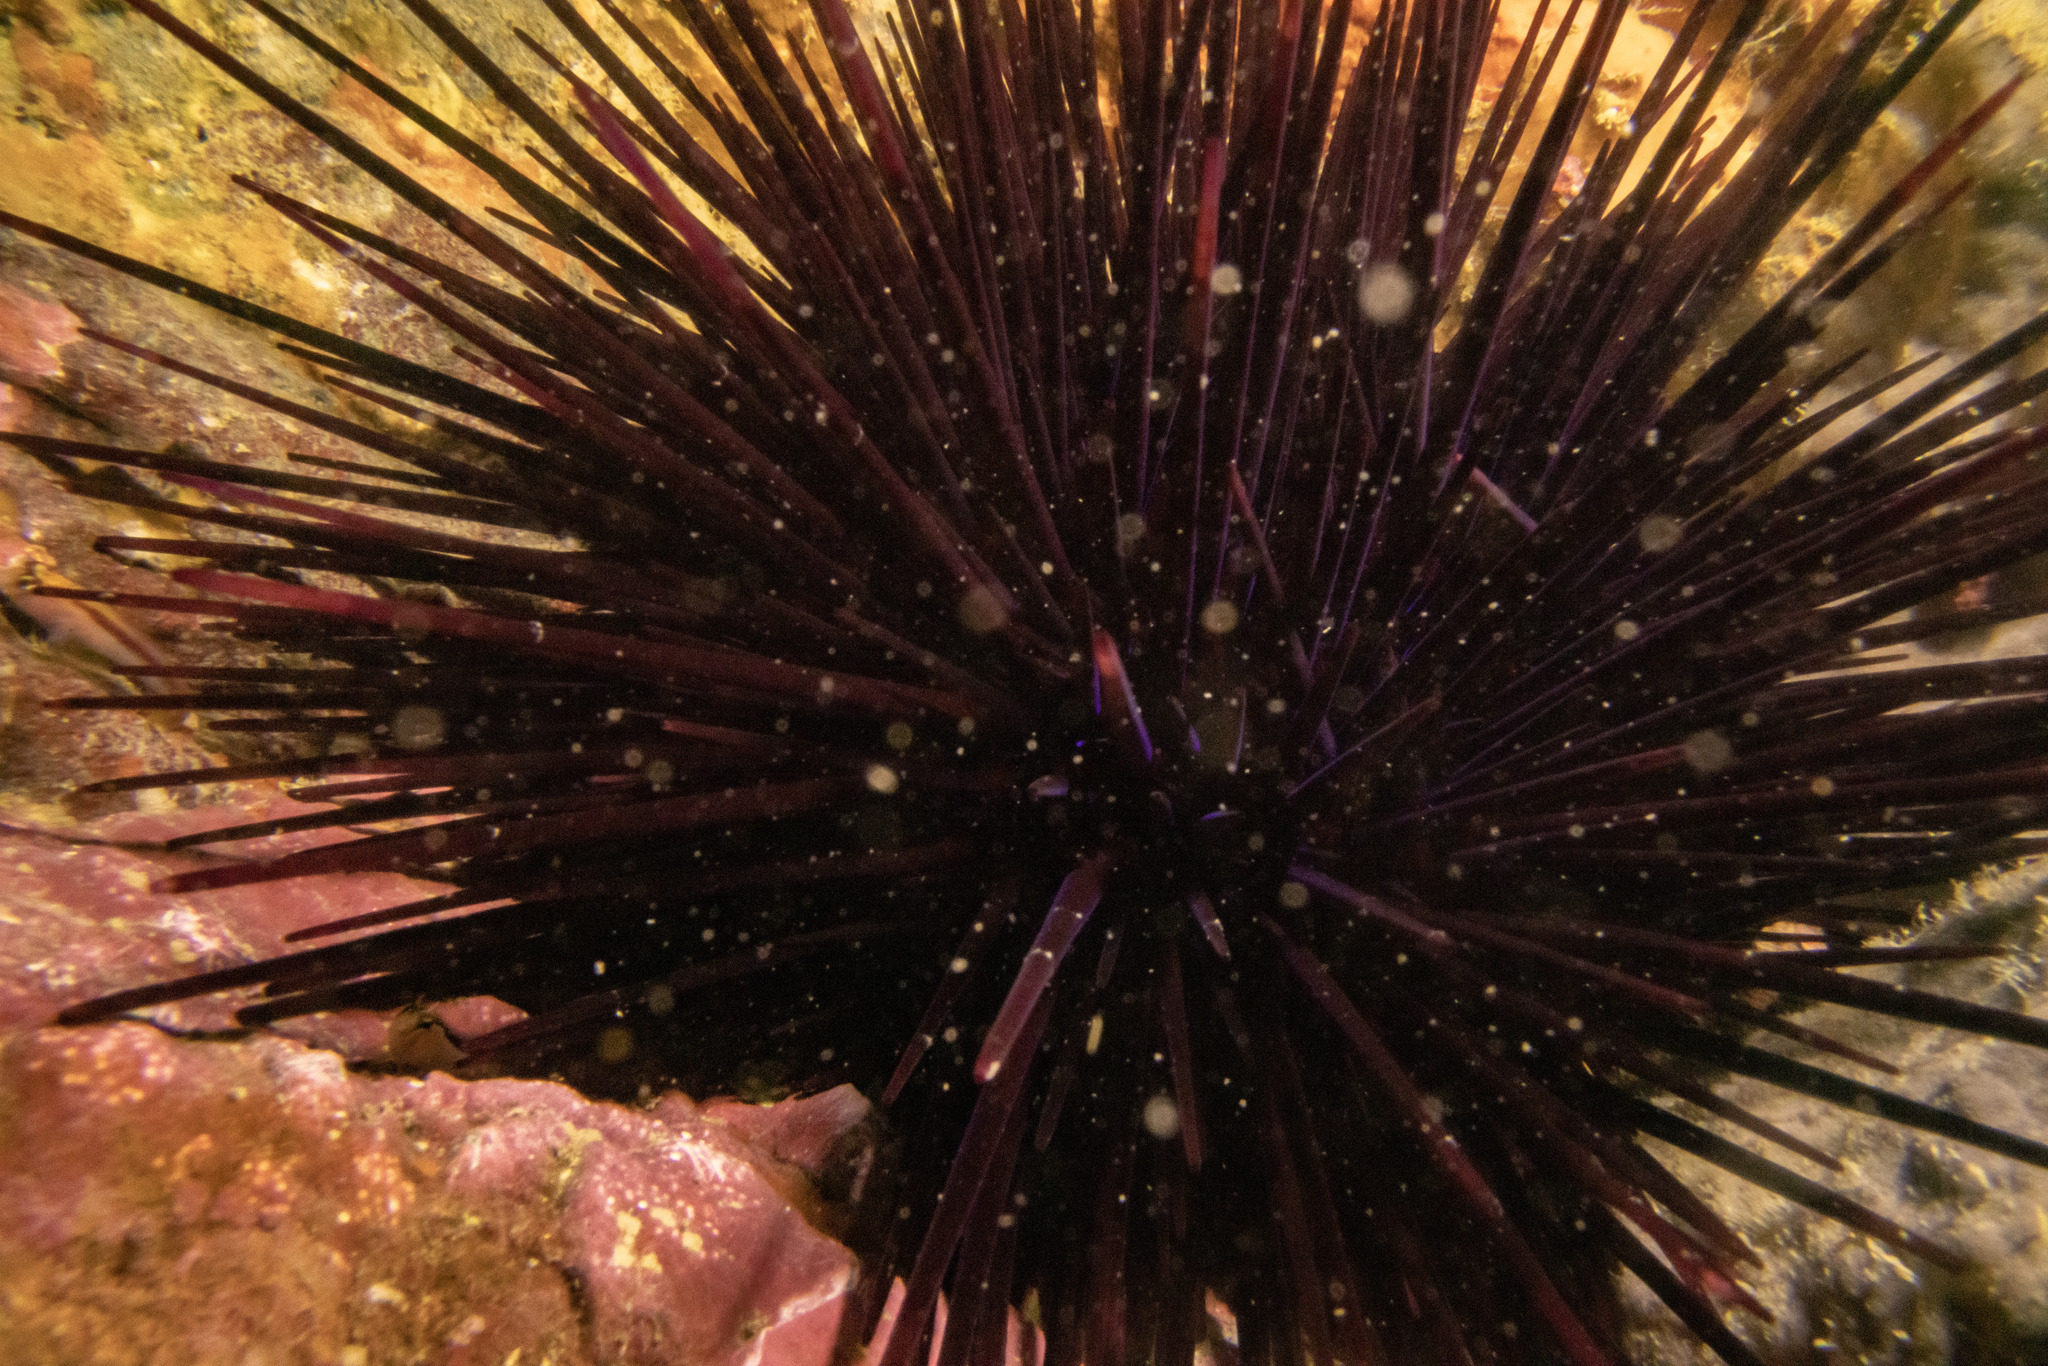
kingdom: Animalia
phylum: Echinodermata
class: Echinoidea
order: Diadematoida
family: Diadematidae
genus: Centrostephanus
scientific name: Centrostephanus rodgersii
